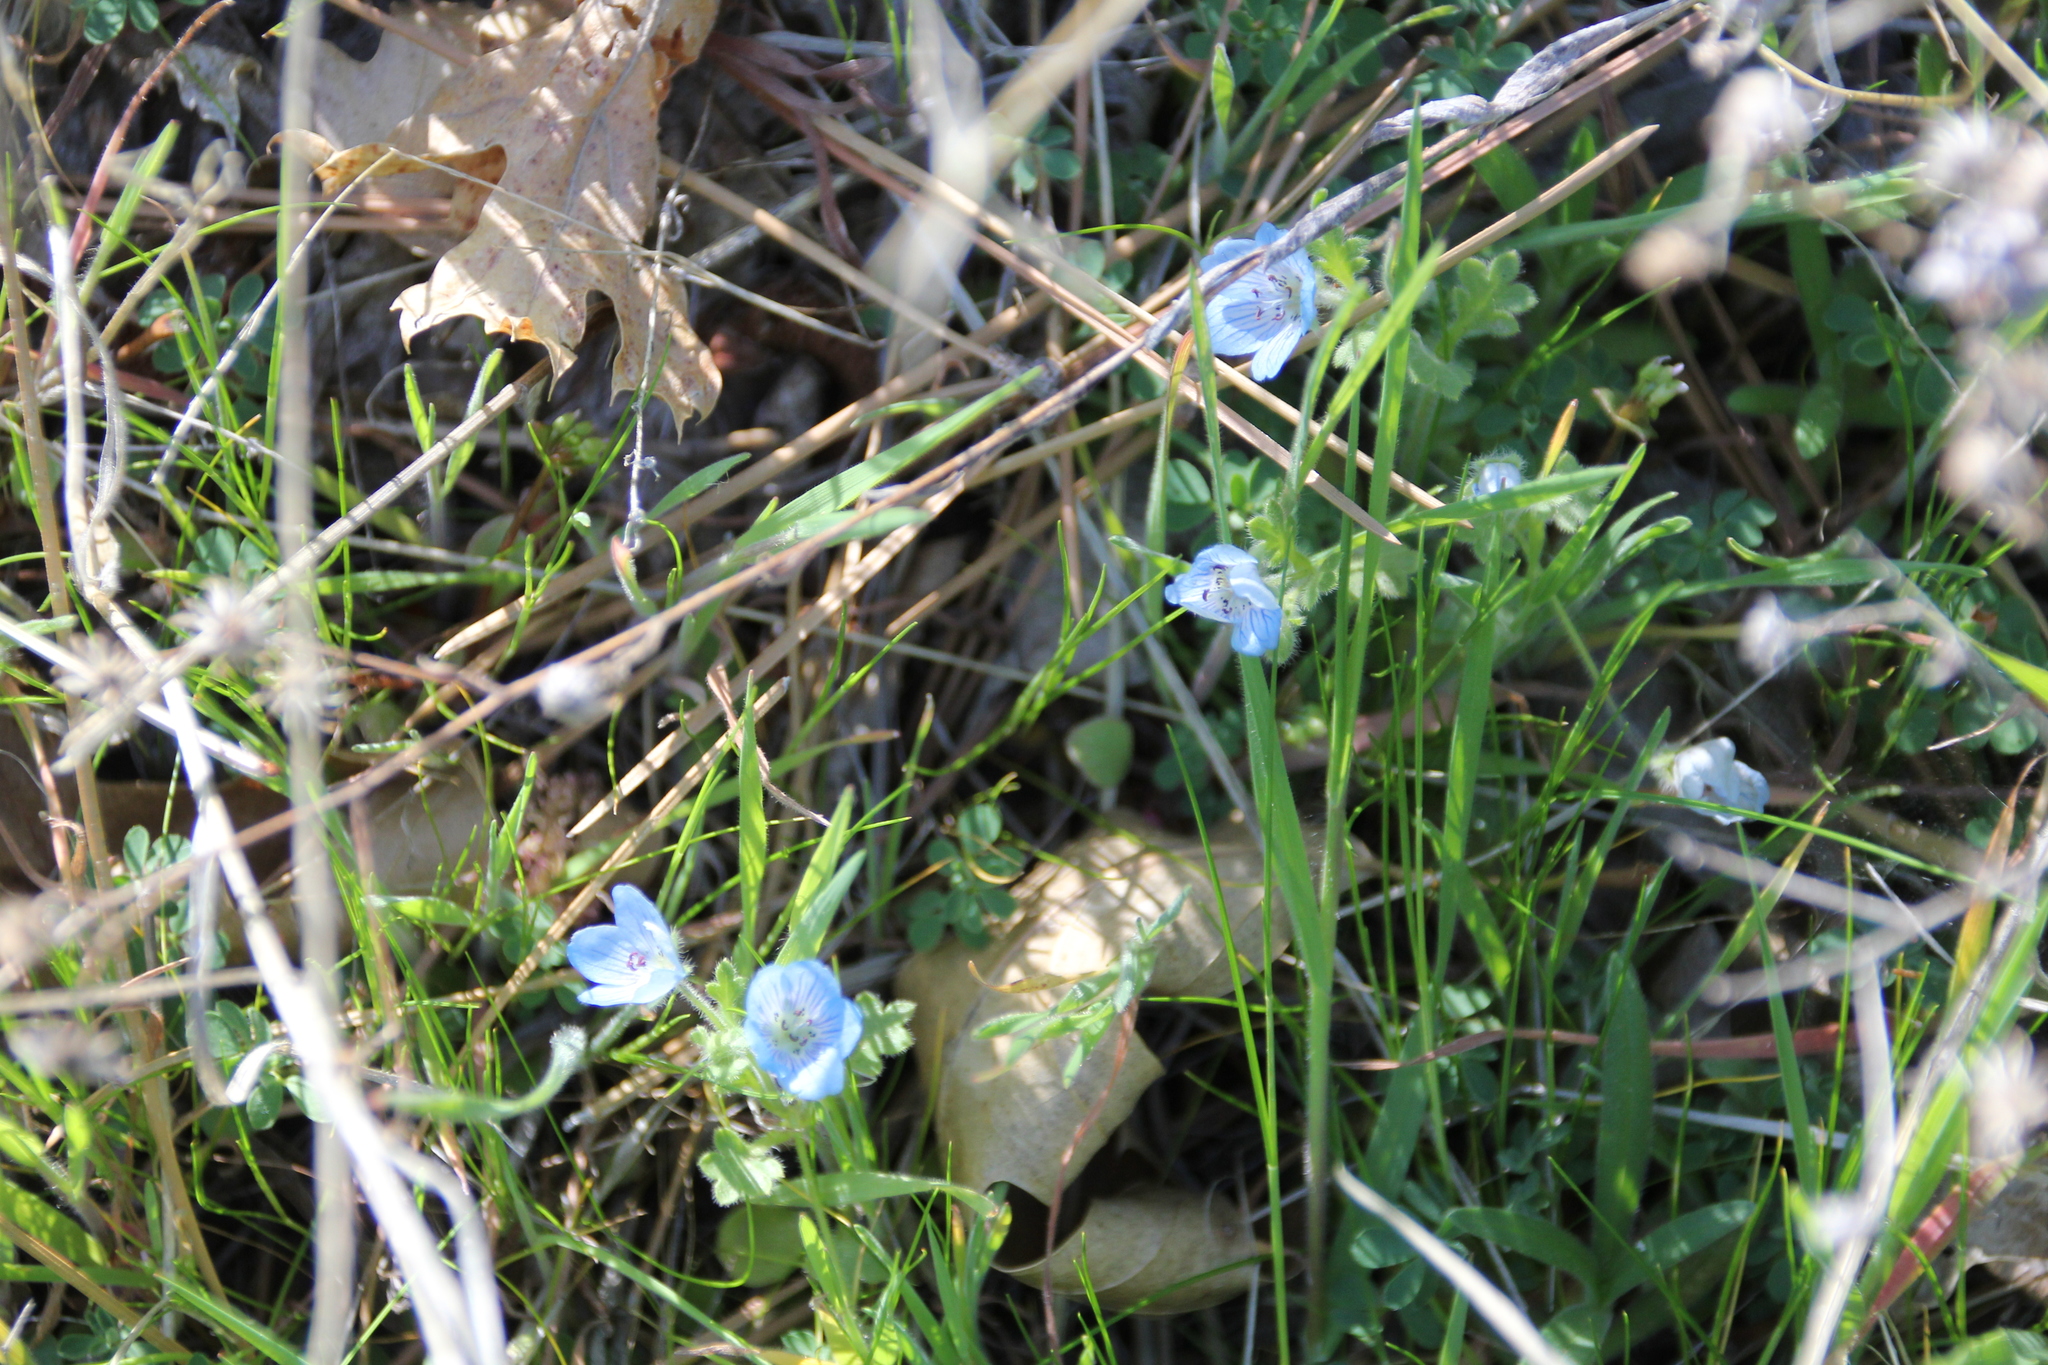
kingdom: Plantae
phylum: Tracheophyta
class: Magnoliopsida
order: Boraginales
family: Hydrophyllaceae
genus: Nemophila
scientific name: Nemophila menziesii
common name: Baby's-blue-eyes
